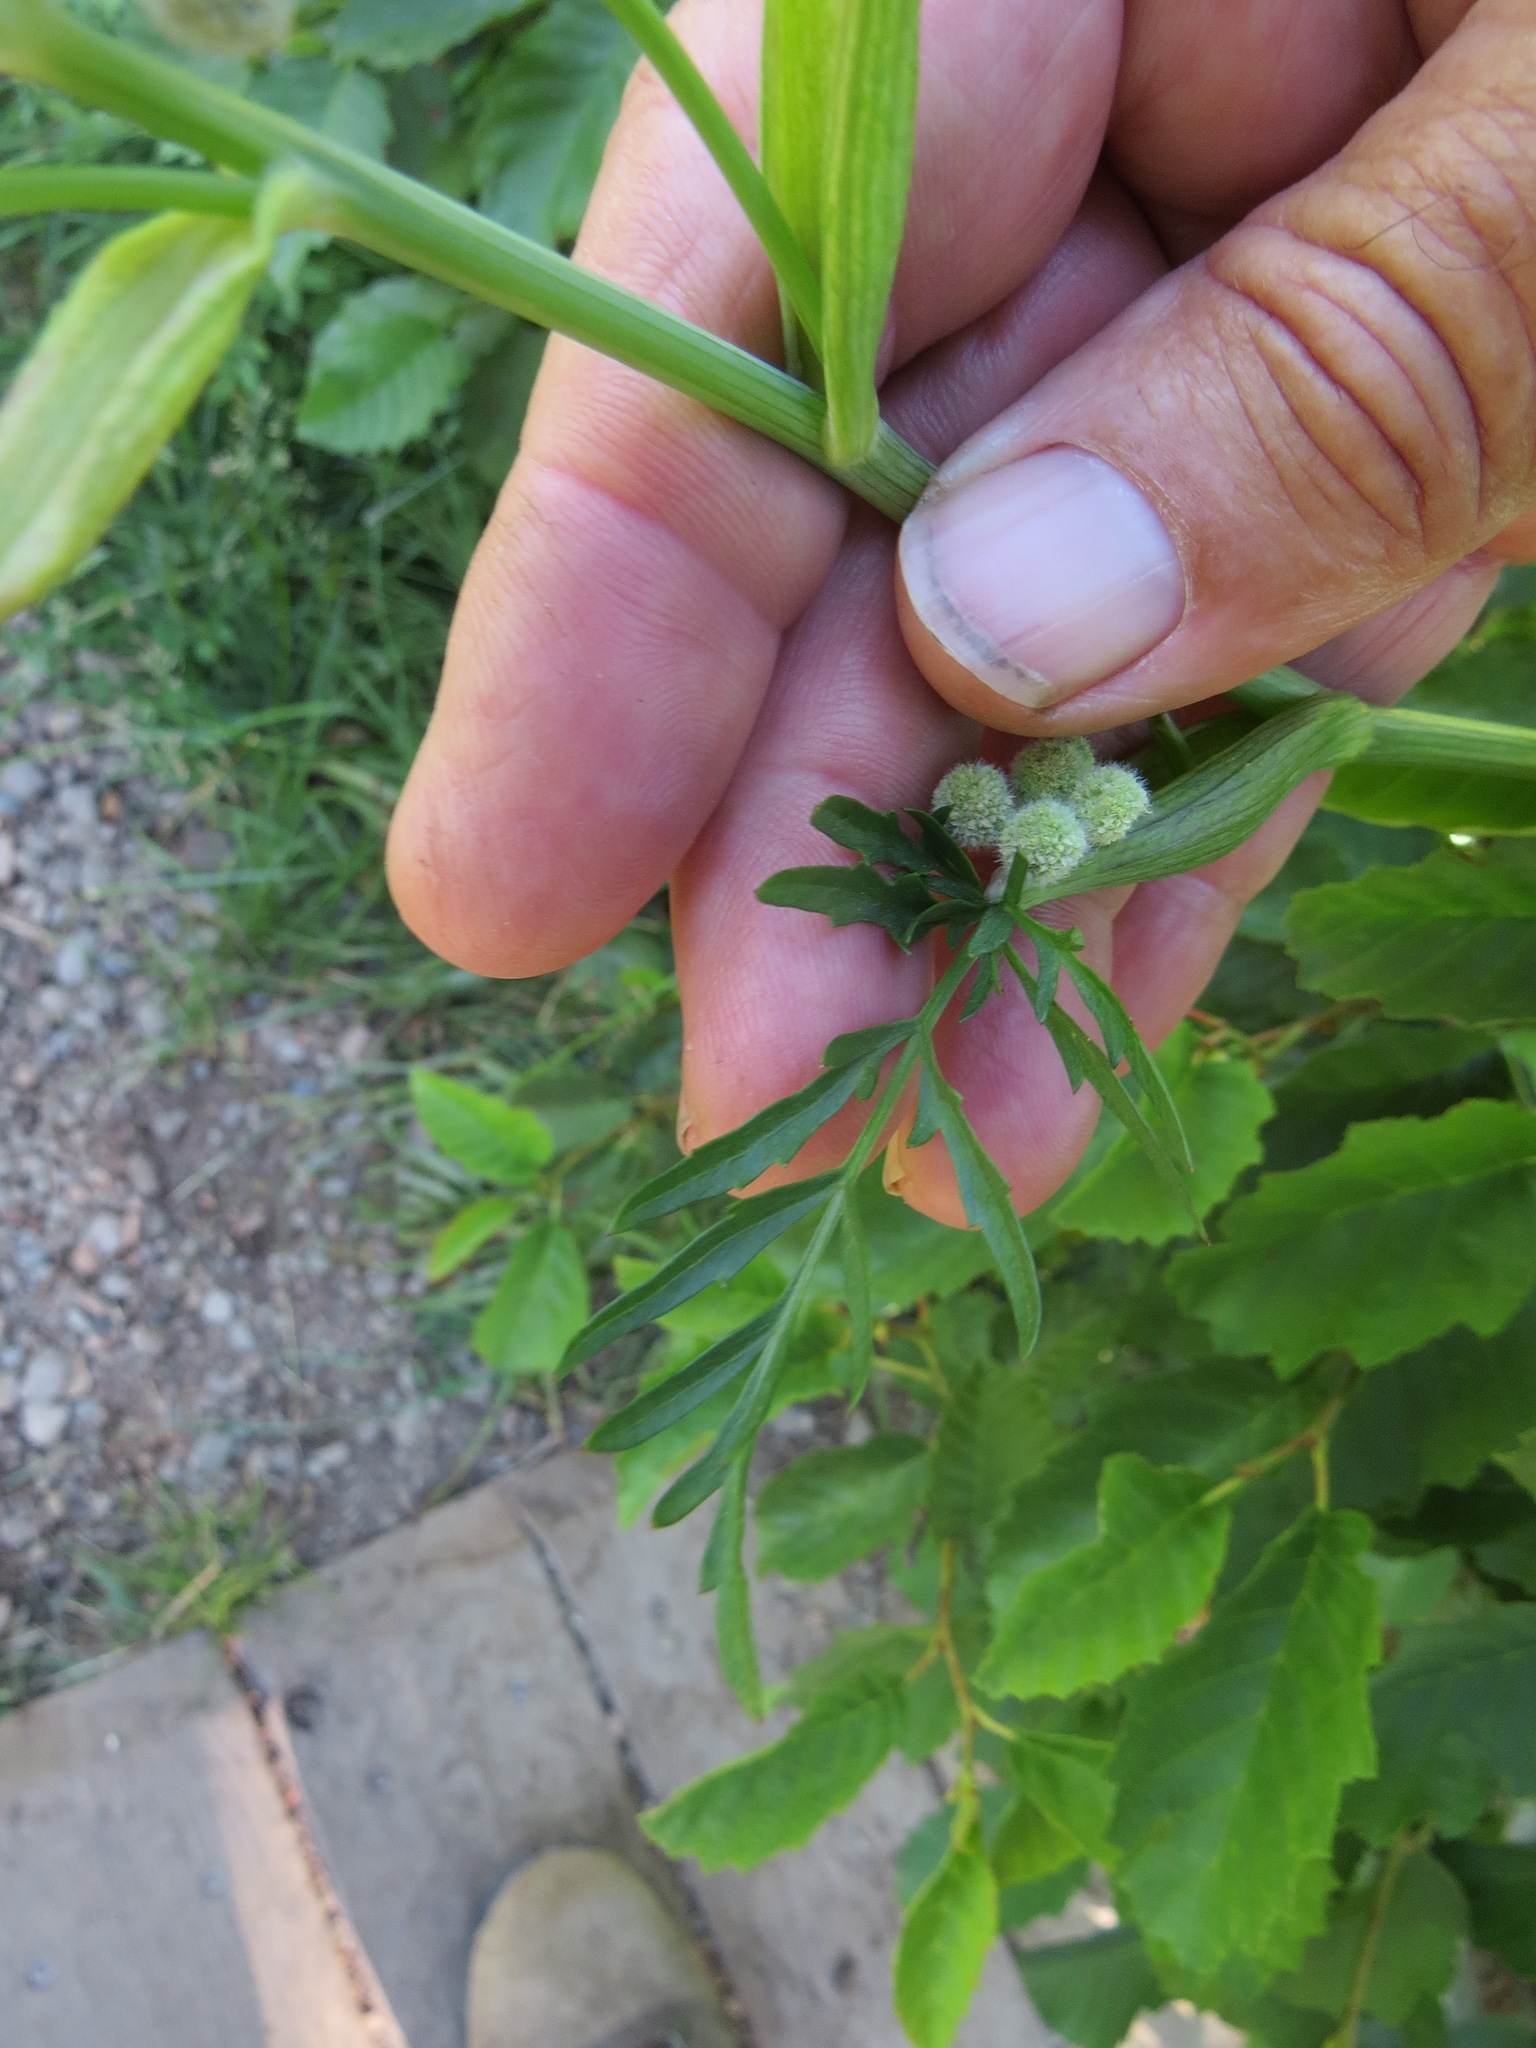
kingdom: Plantae
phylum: Tracheophyta
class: Magnoliopsida
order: Apiales
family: Apiaceae
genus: Angelica
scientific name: Angelica capitellata
